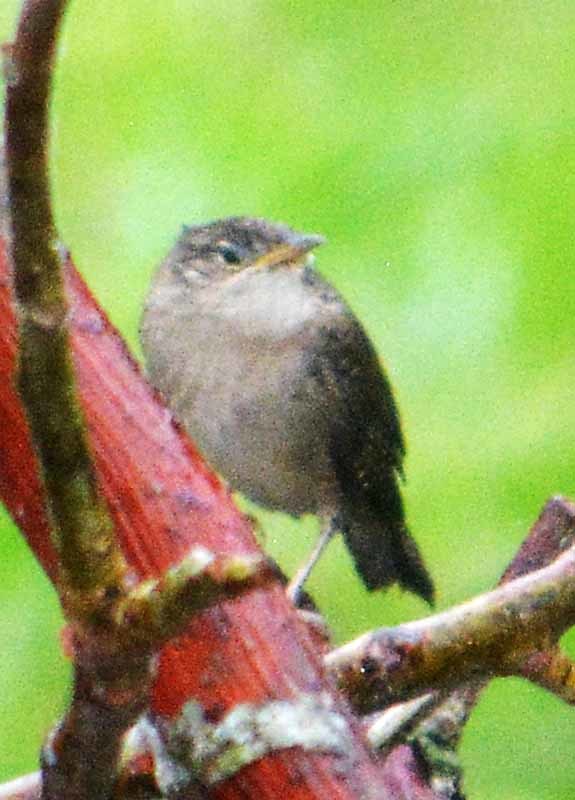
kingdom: Animalia
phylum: Chordata
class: Aves
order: Passeriformes
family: Troglodytidae
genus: Troglodytes
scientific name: Troglodytes aedon
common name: House wren
